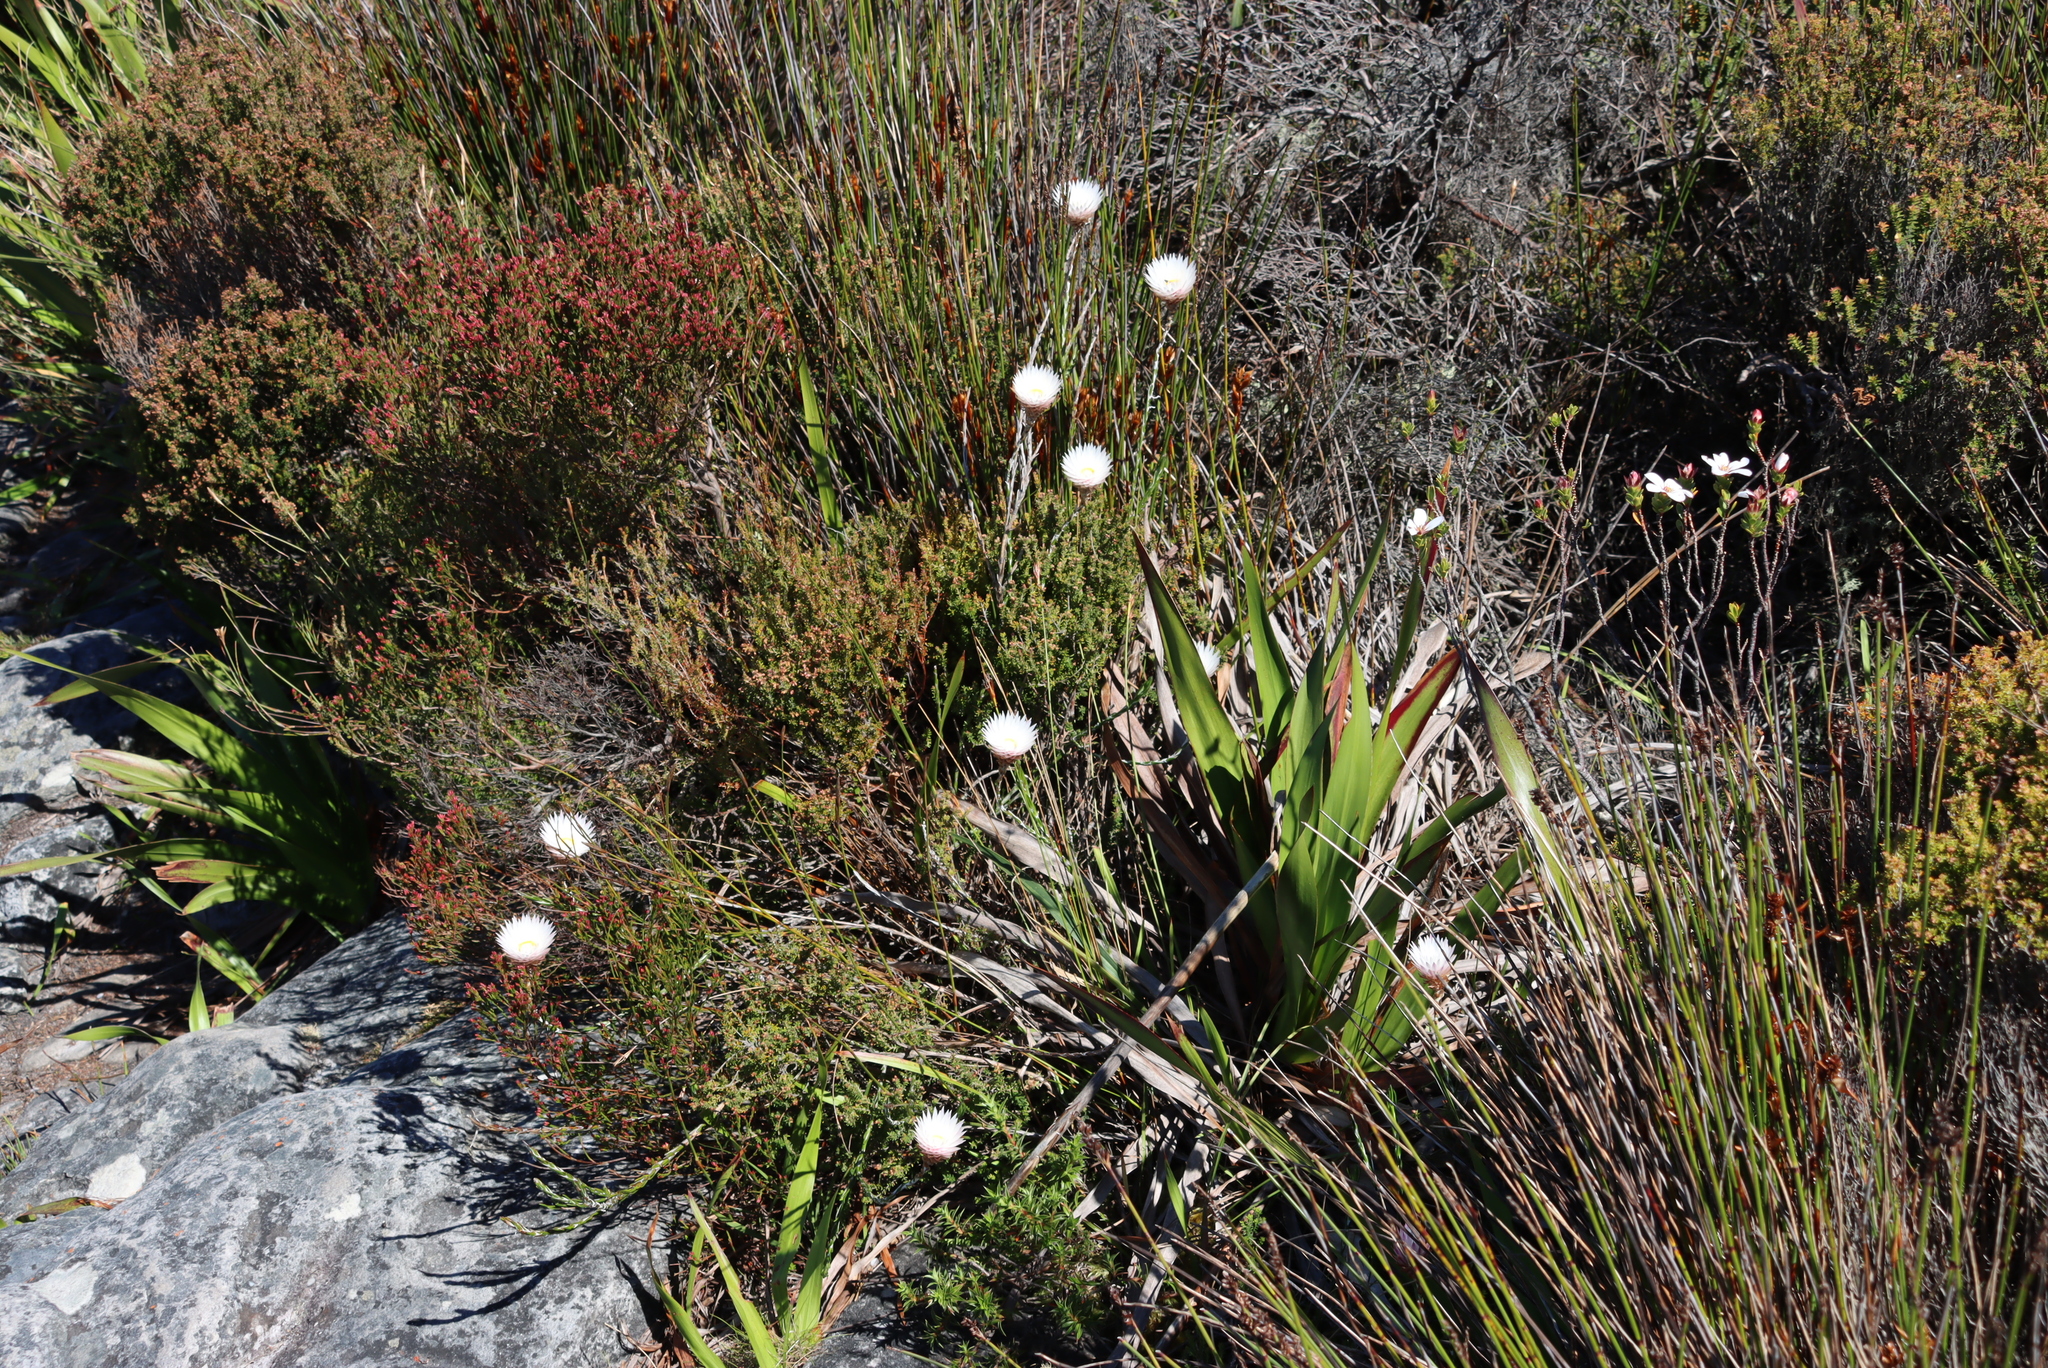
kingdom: Plantae
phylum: Tracheophyta
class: Magnoliopsida
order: Asterales
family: Asteraceae
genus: Edmondia
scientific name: Edmondia pinifolia
